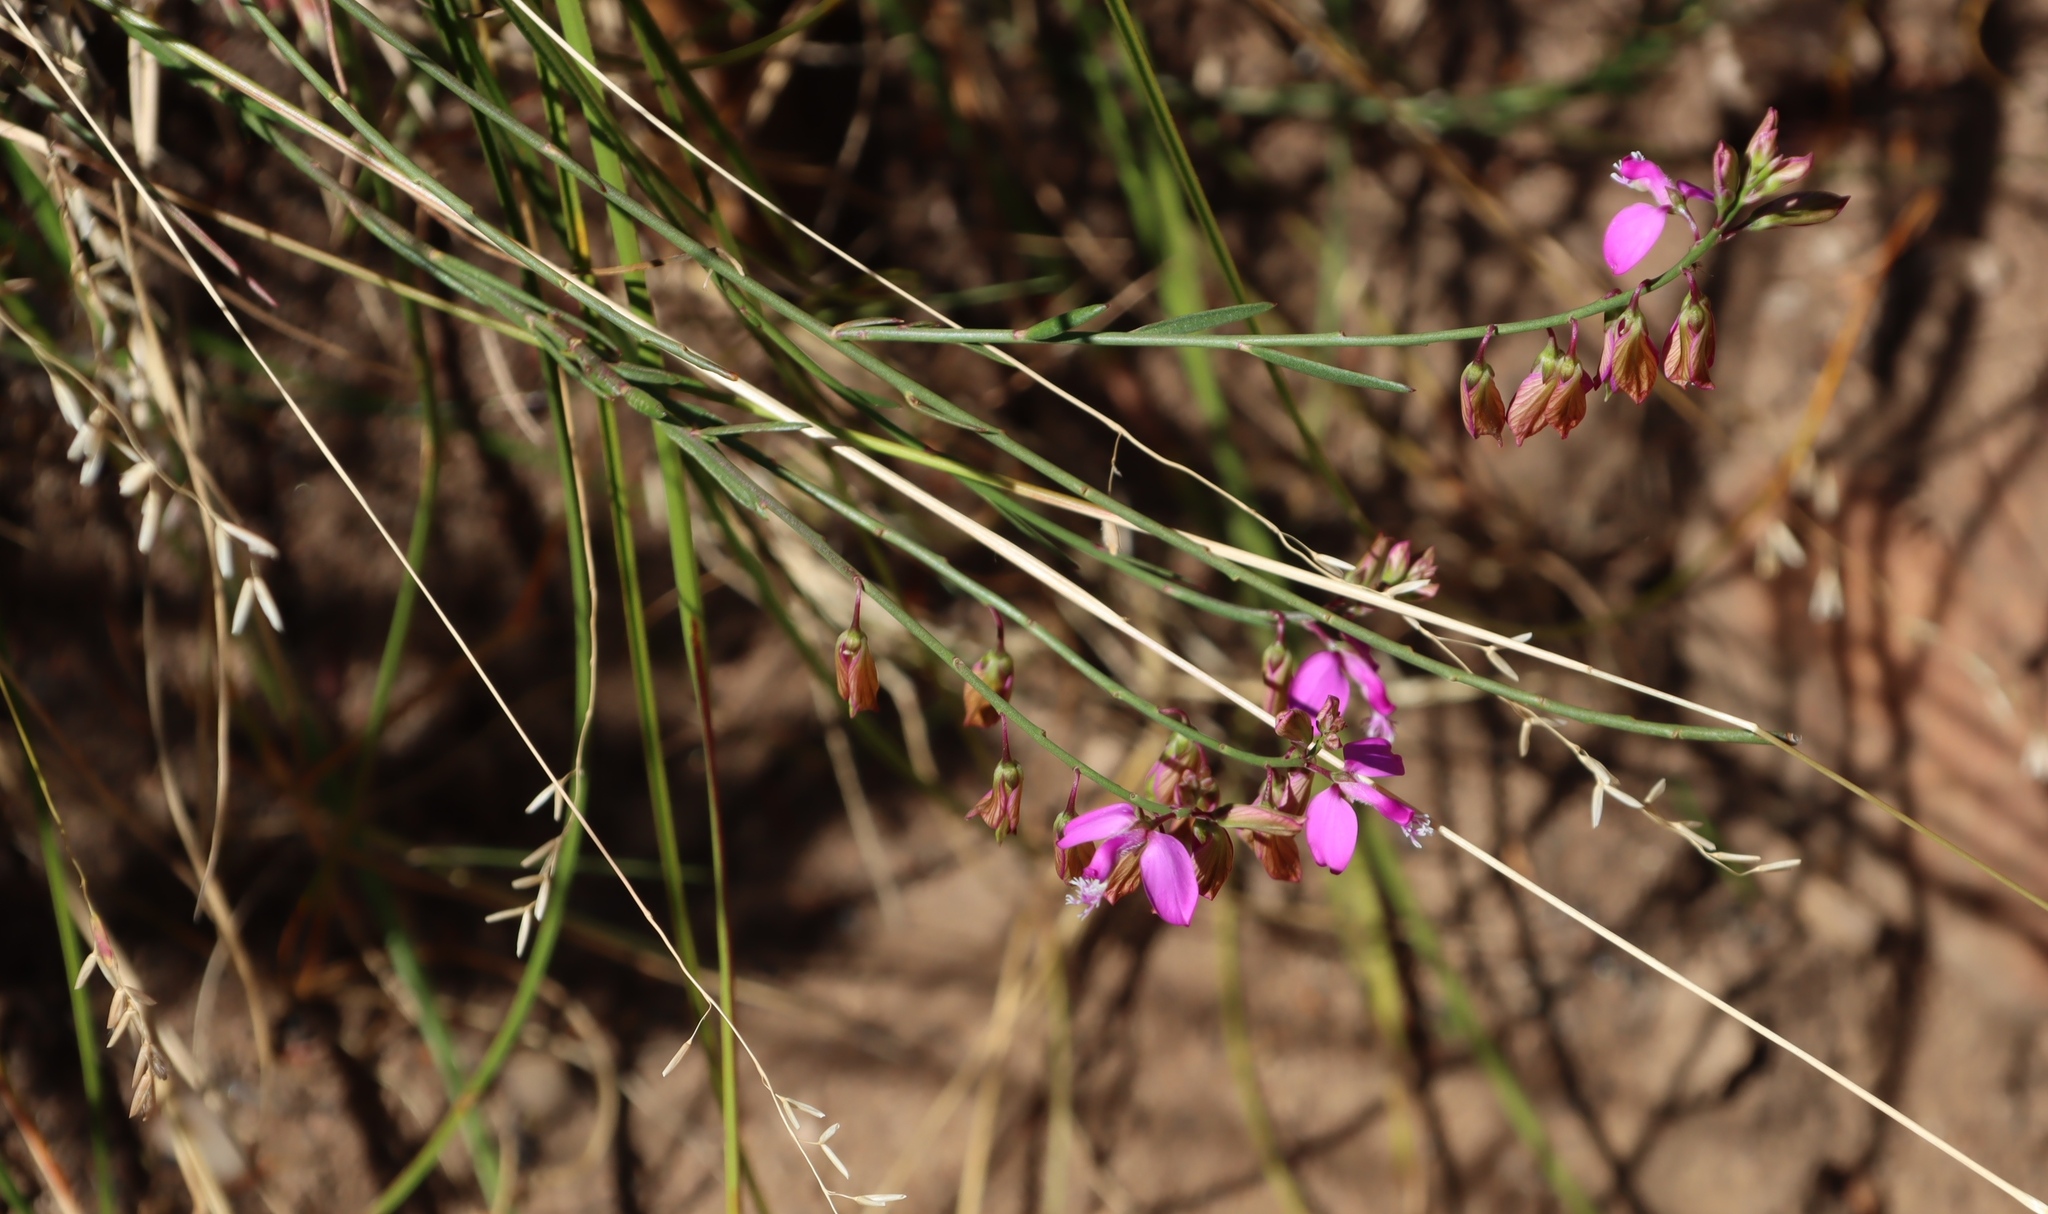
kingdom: Plantae
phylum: Tracheophyta
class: Magnoliopsida
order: Fabales
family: Polygalaceae
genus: Polygala
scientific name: Polygala garcini
